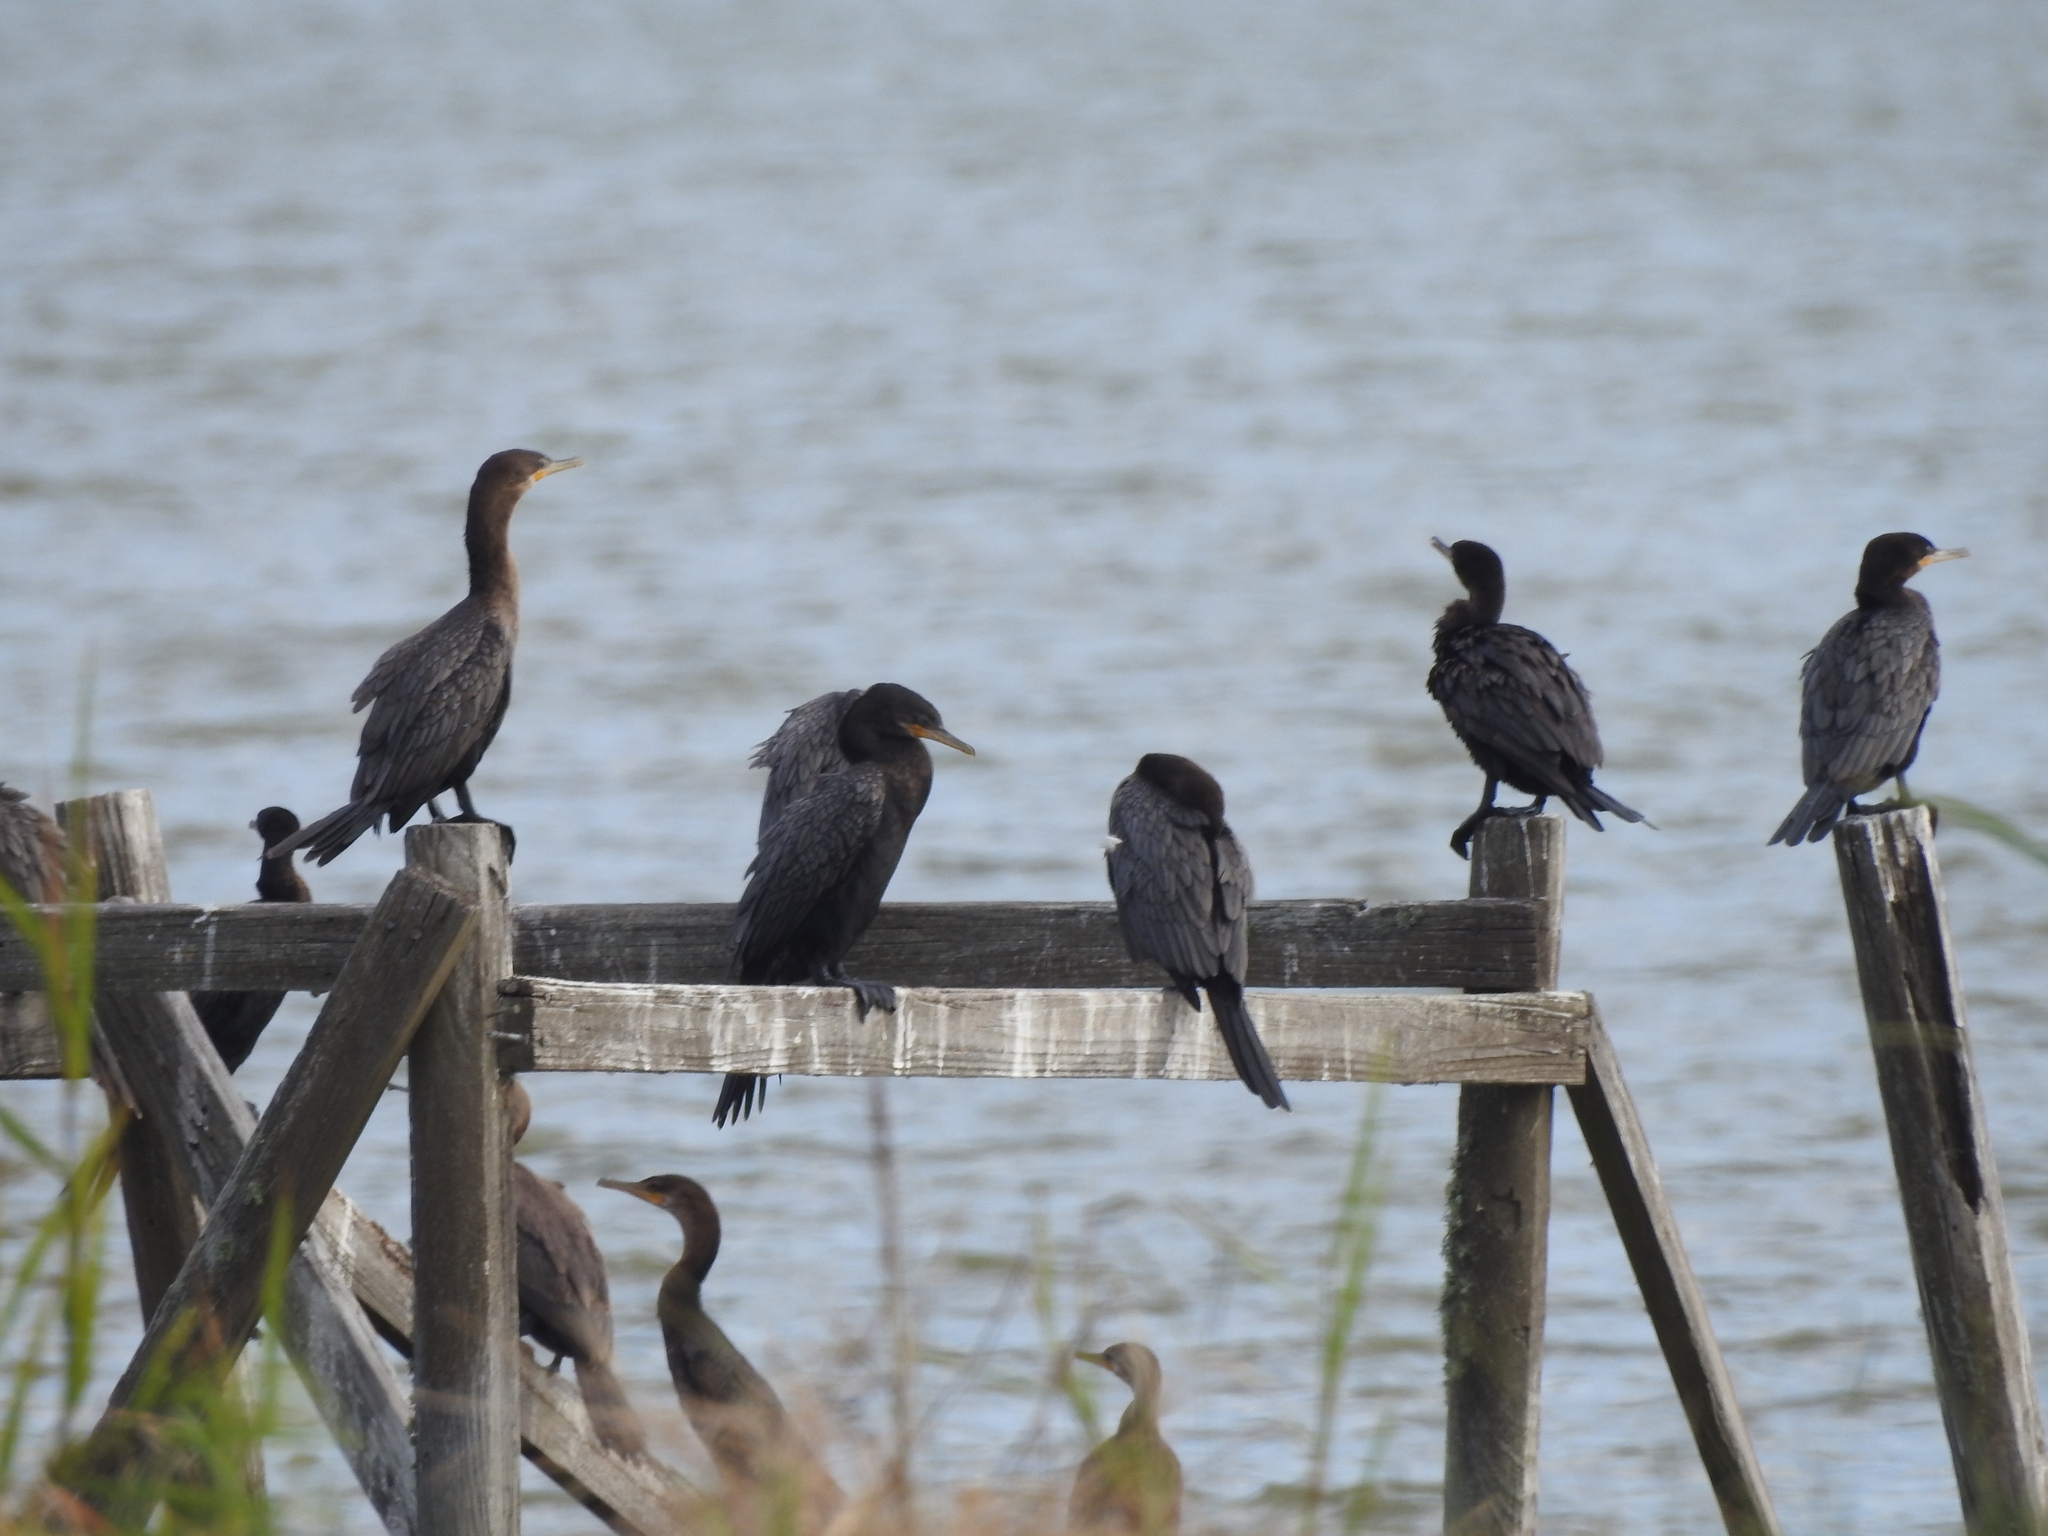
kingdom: Animalia
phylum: Chordata
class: Aves
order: Suliformes
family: Phalacrocoracidae
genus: Phalacrocorax
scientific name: Phalacrocorax brasilianus
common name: Neotropic cormorant
